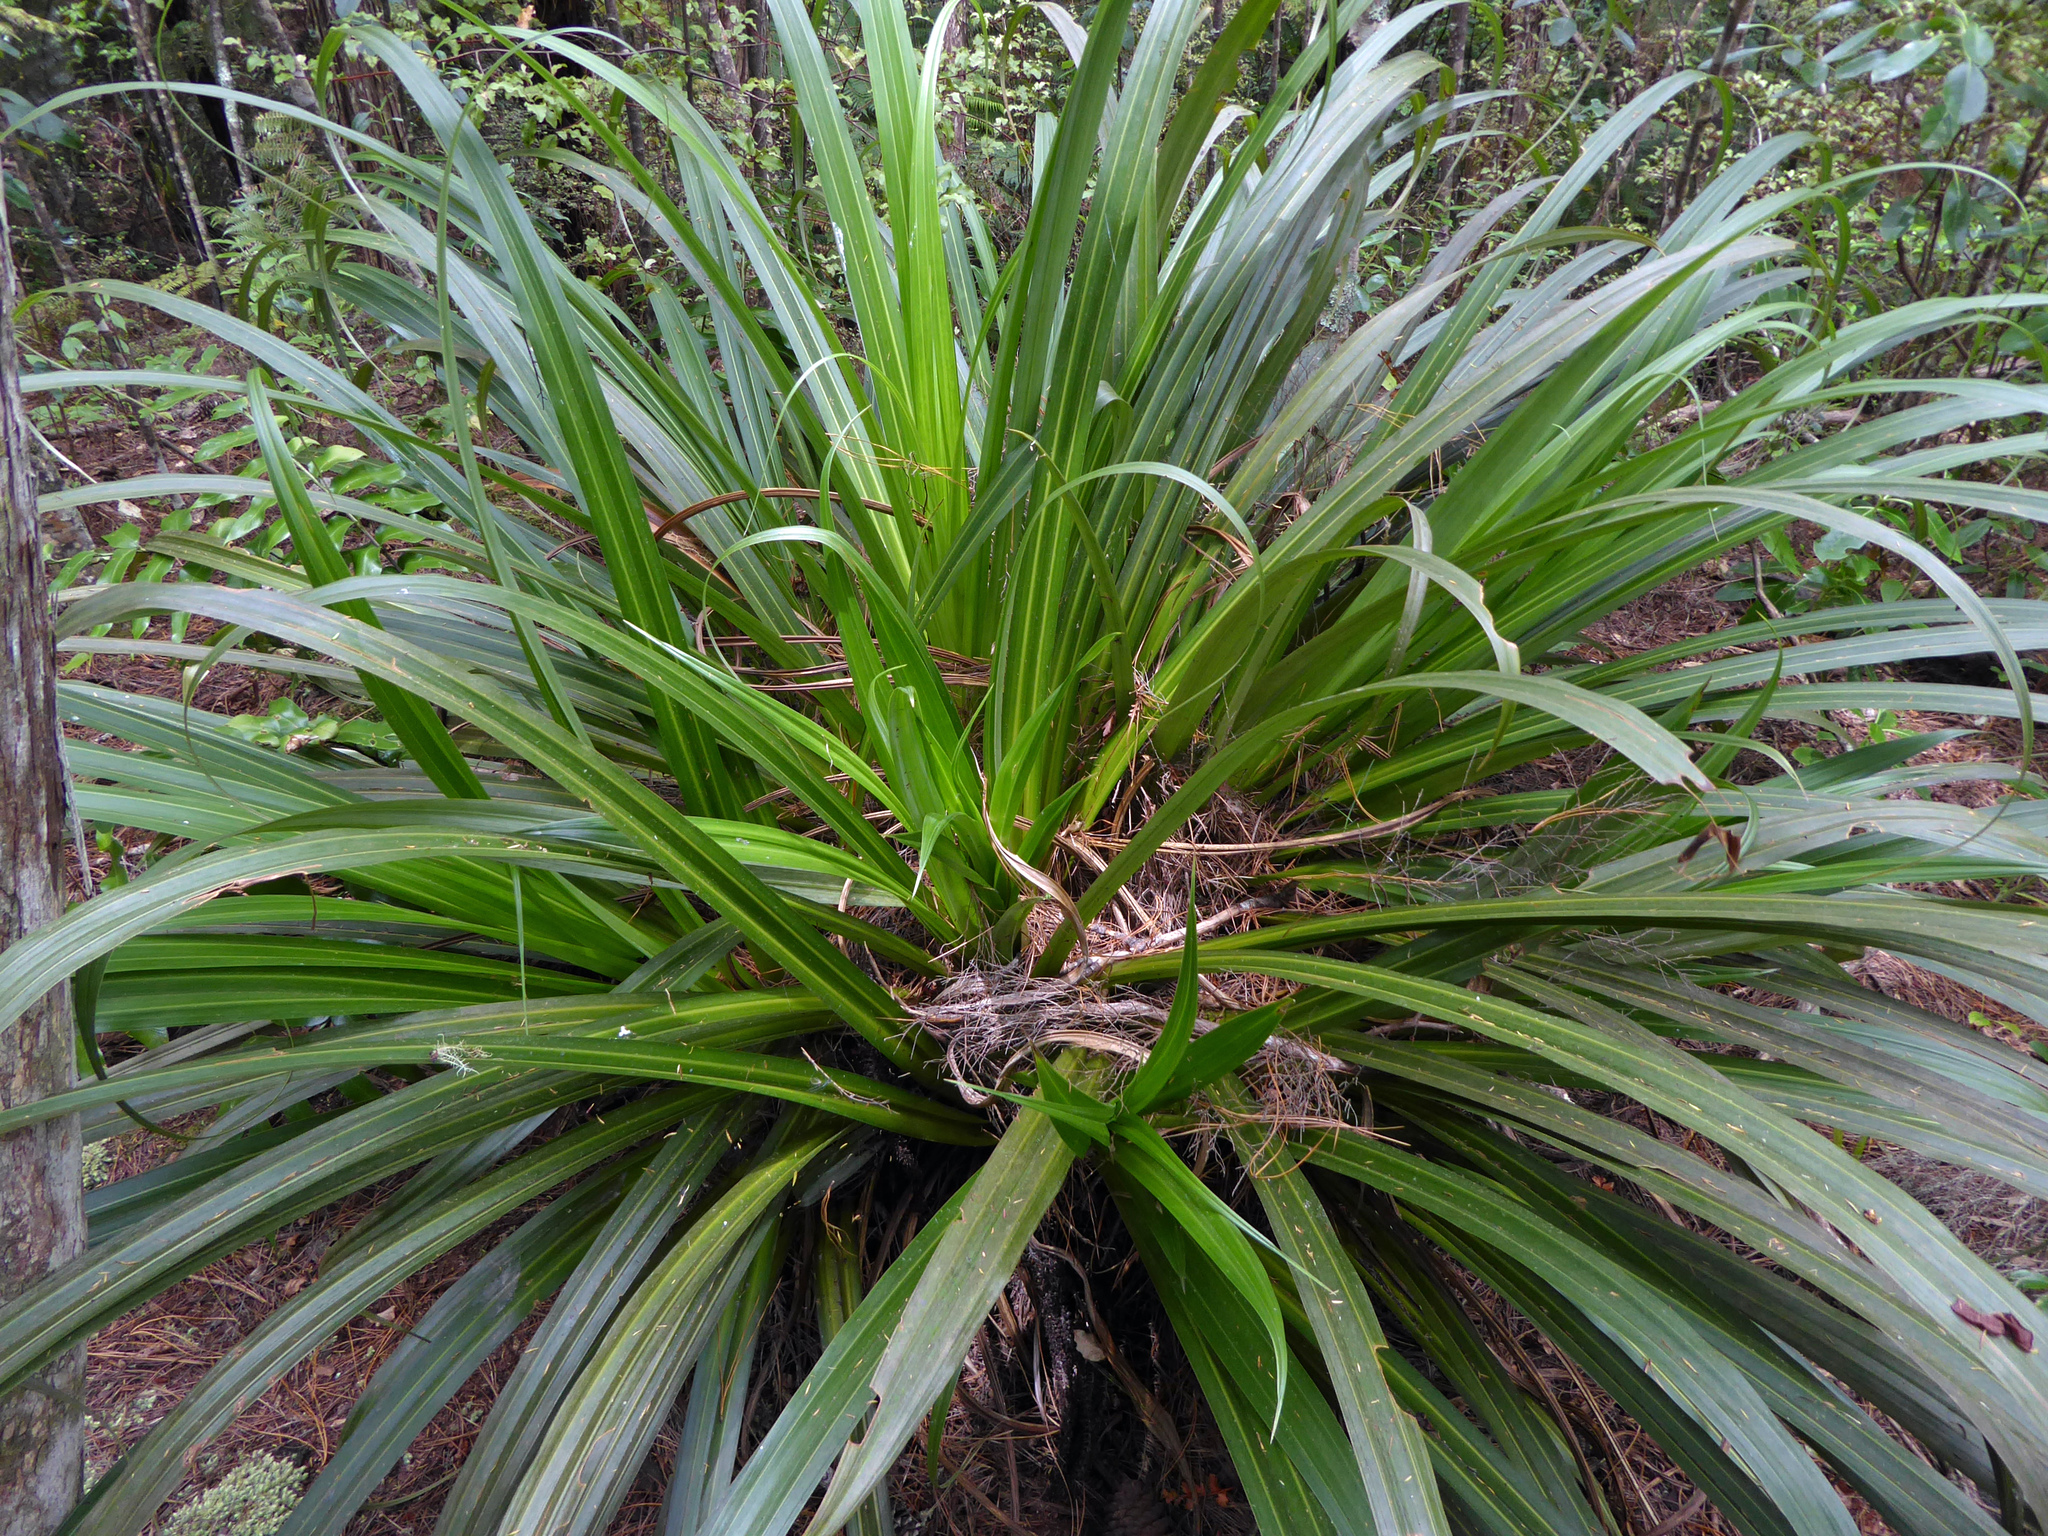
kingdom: Plantae
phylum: Tracheophyta
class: Liliopsida
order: Asparagales
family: Asteliaceae
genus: Astelia
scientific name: Astelia hastata
